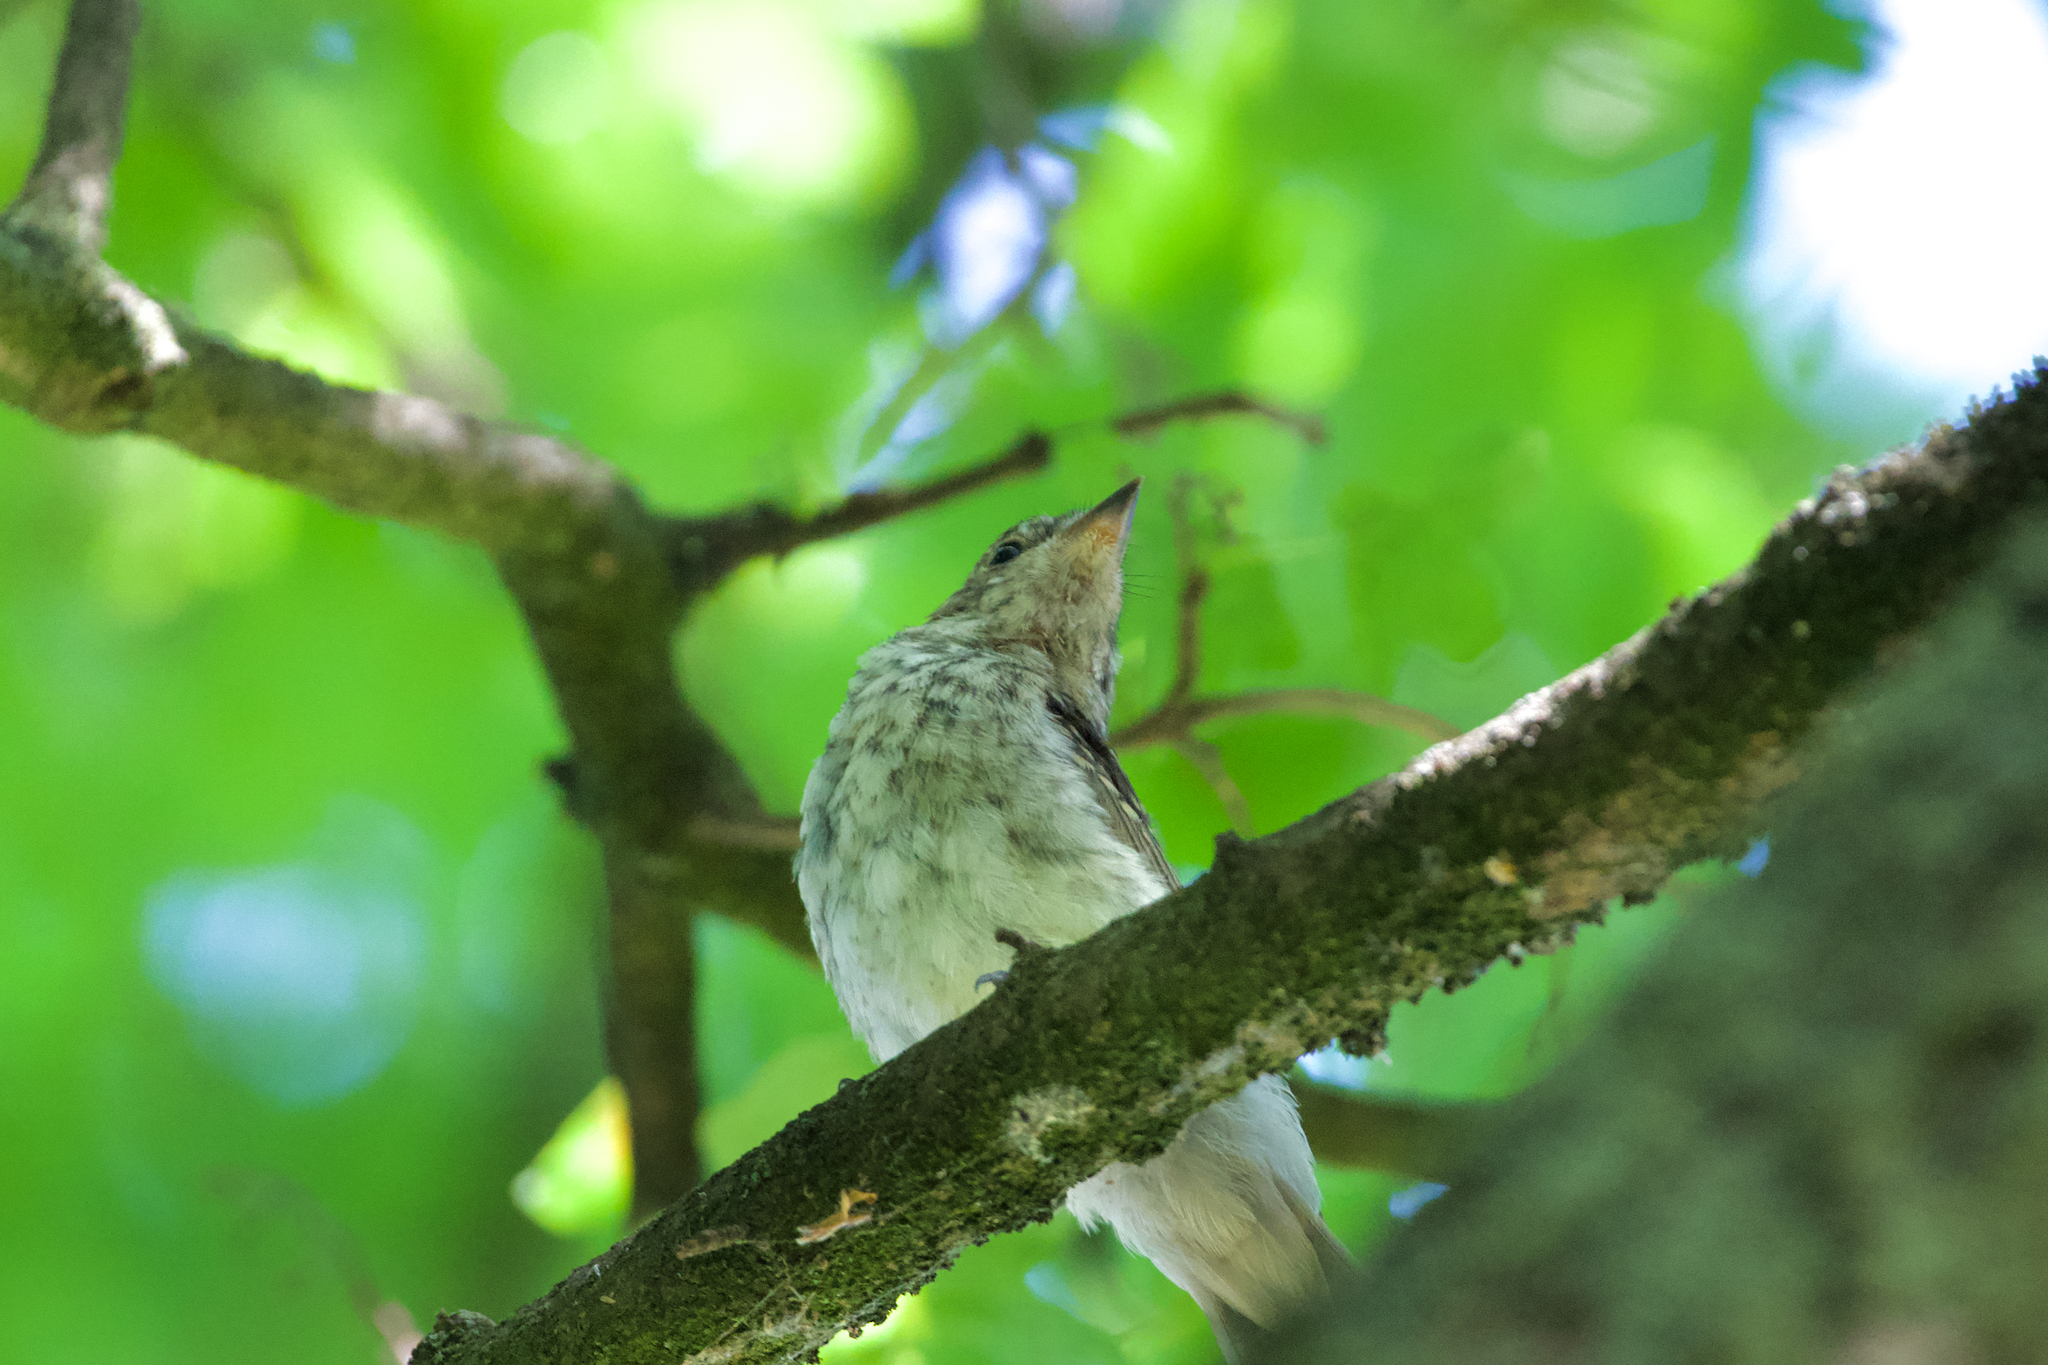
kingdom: Animalia
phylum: Chordata
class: Aves
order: Passeriformes
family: Muscicapidae
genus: Muscicapa
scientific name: Muscicapa striata
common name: Spotted flycatcher
